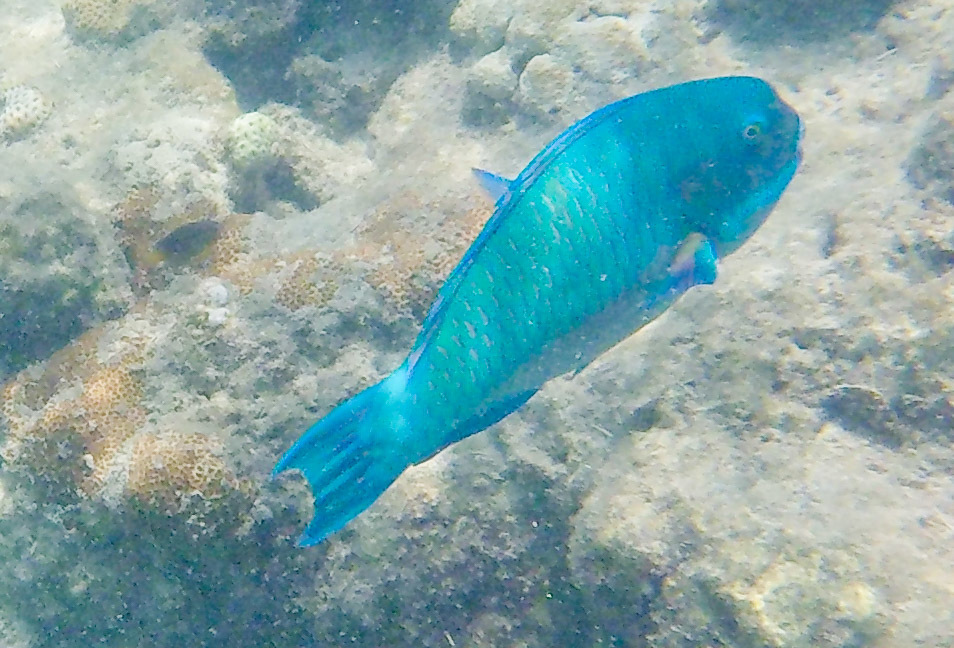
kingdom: Animalia
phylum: Chordata
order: Perciformes
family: Scaridae
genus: Chlorurus
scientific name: Chlorurus microrhinos
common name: Steephead parrotfish
